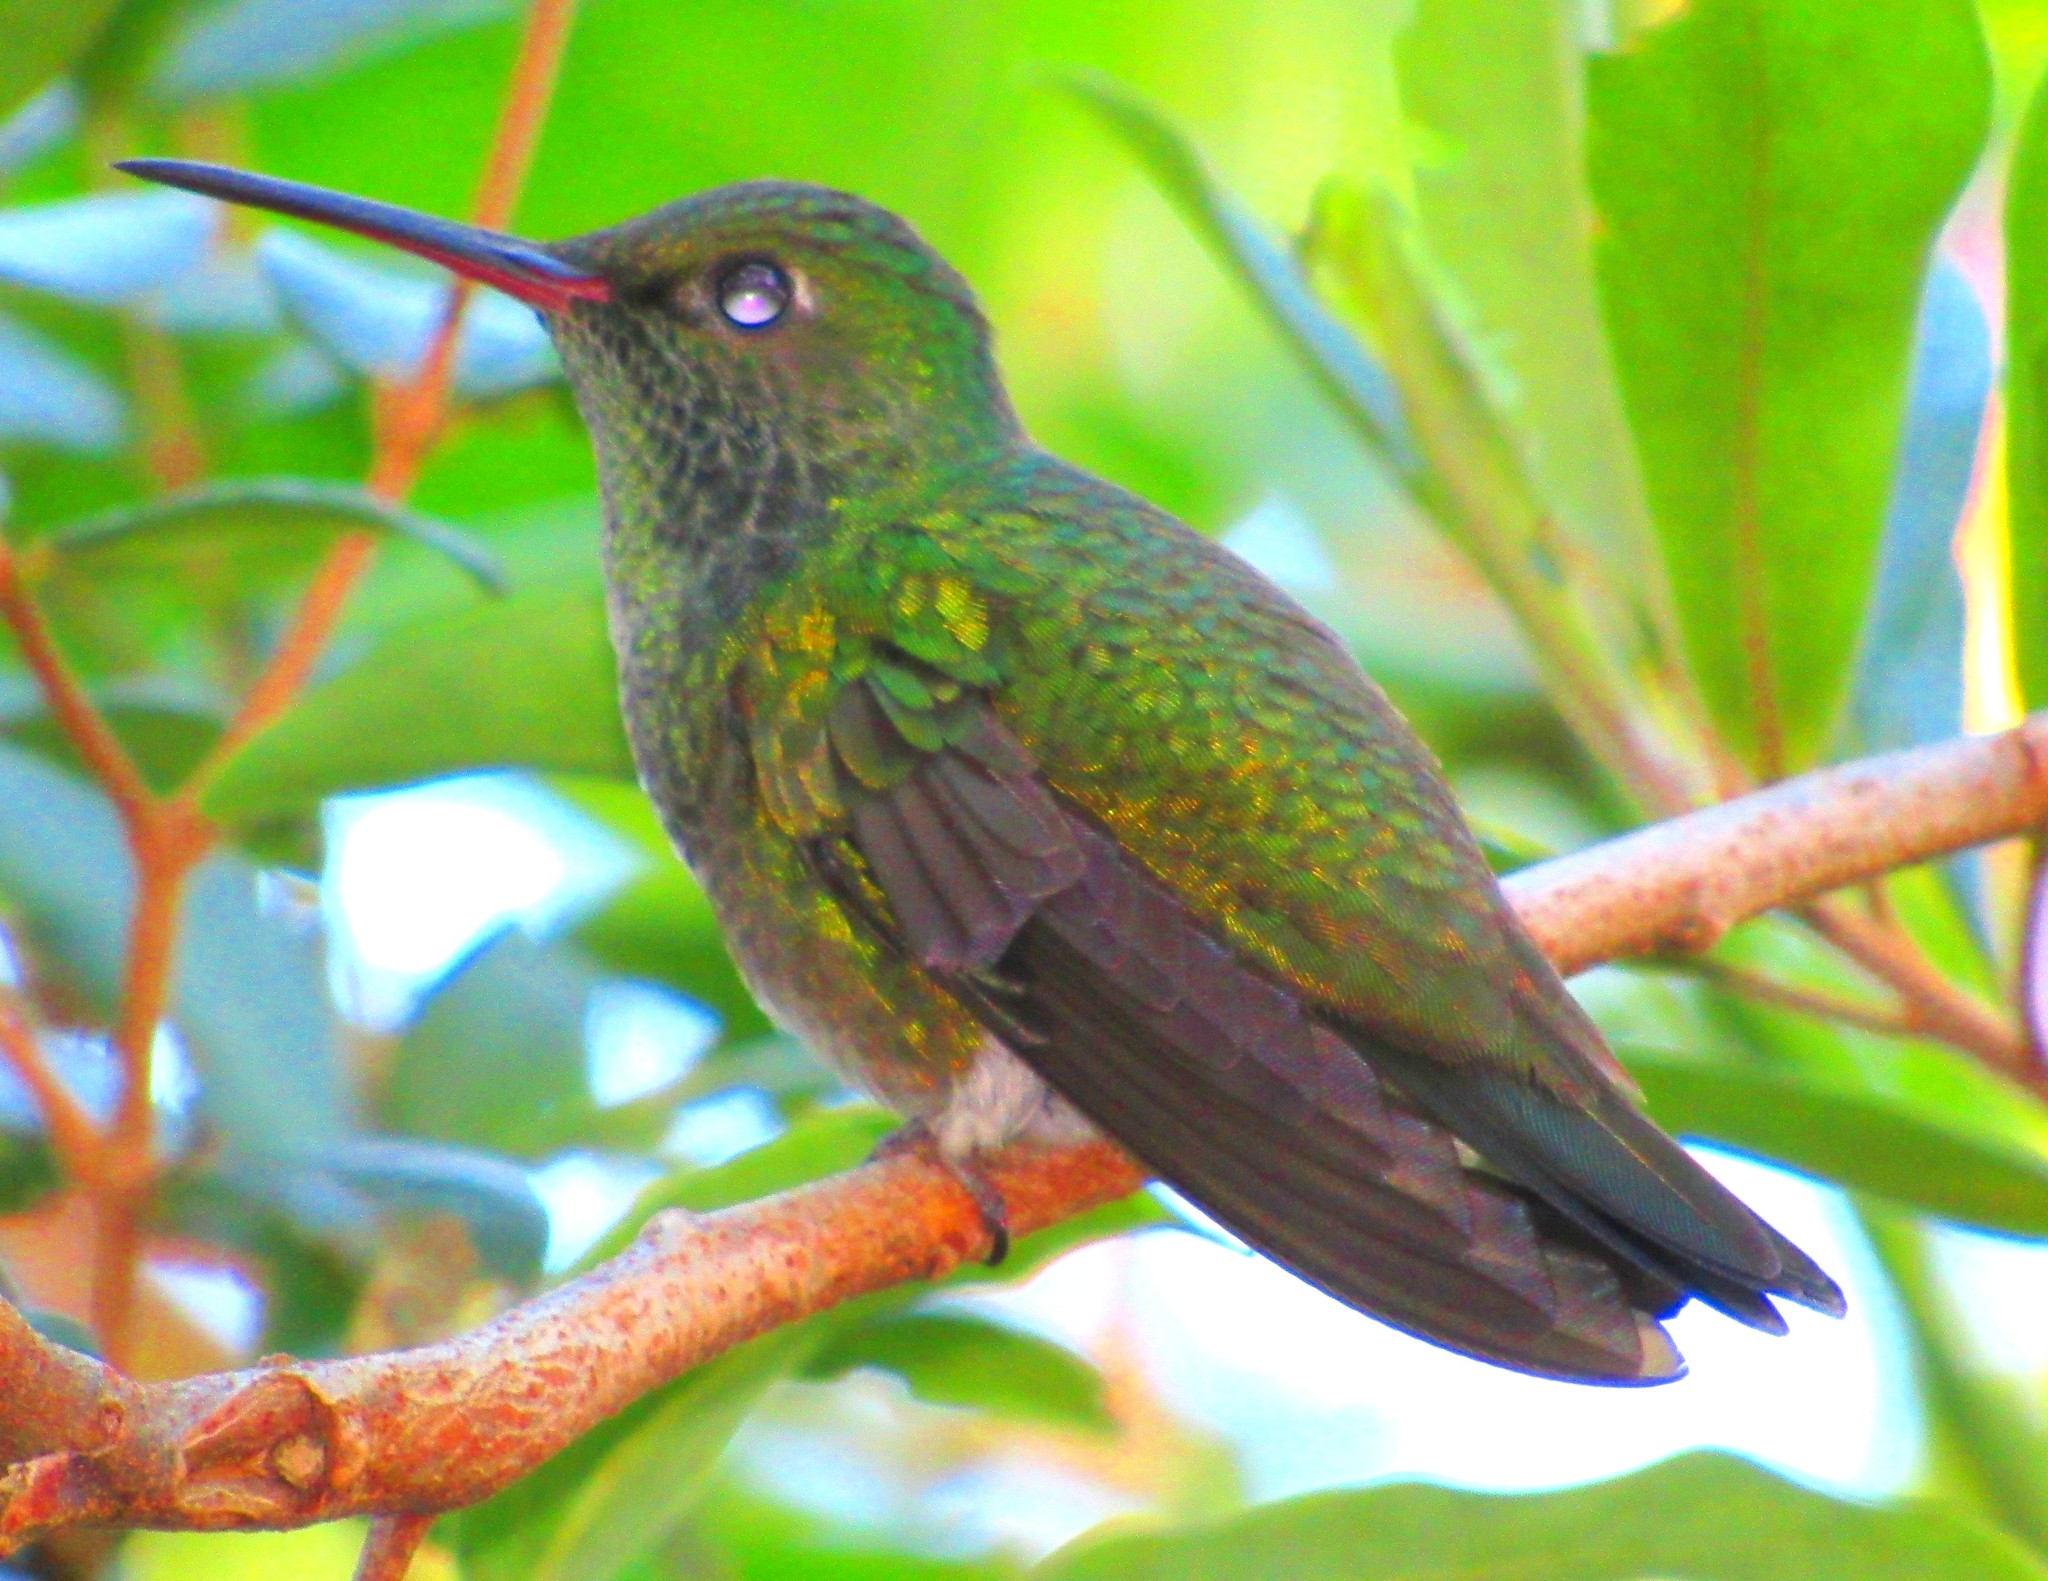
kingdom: Animalia
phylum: Chordata
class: Aves
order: Apodiformes
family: Trochilidae
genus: Chionomesa
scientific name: Chionomesa fimbriata
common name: Glittering-throated emerald
